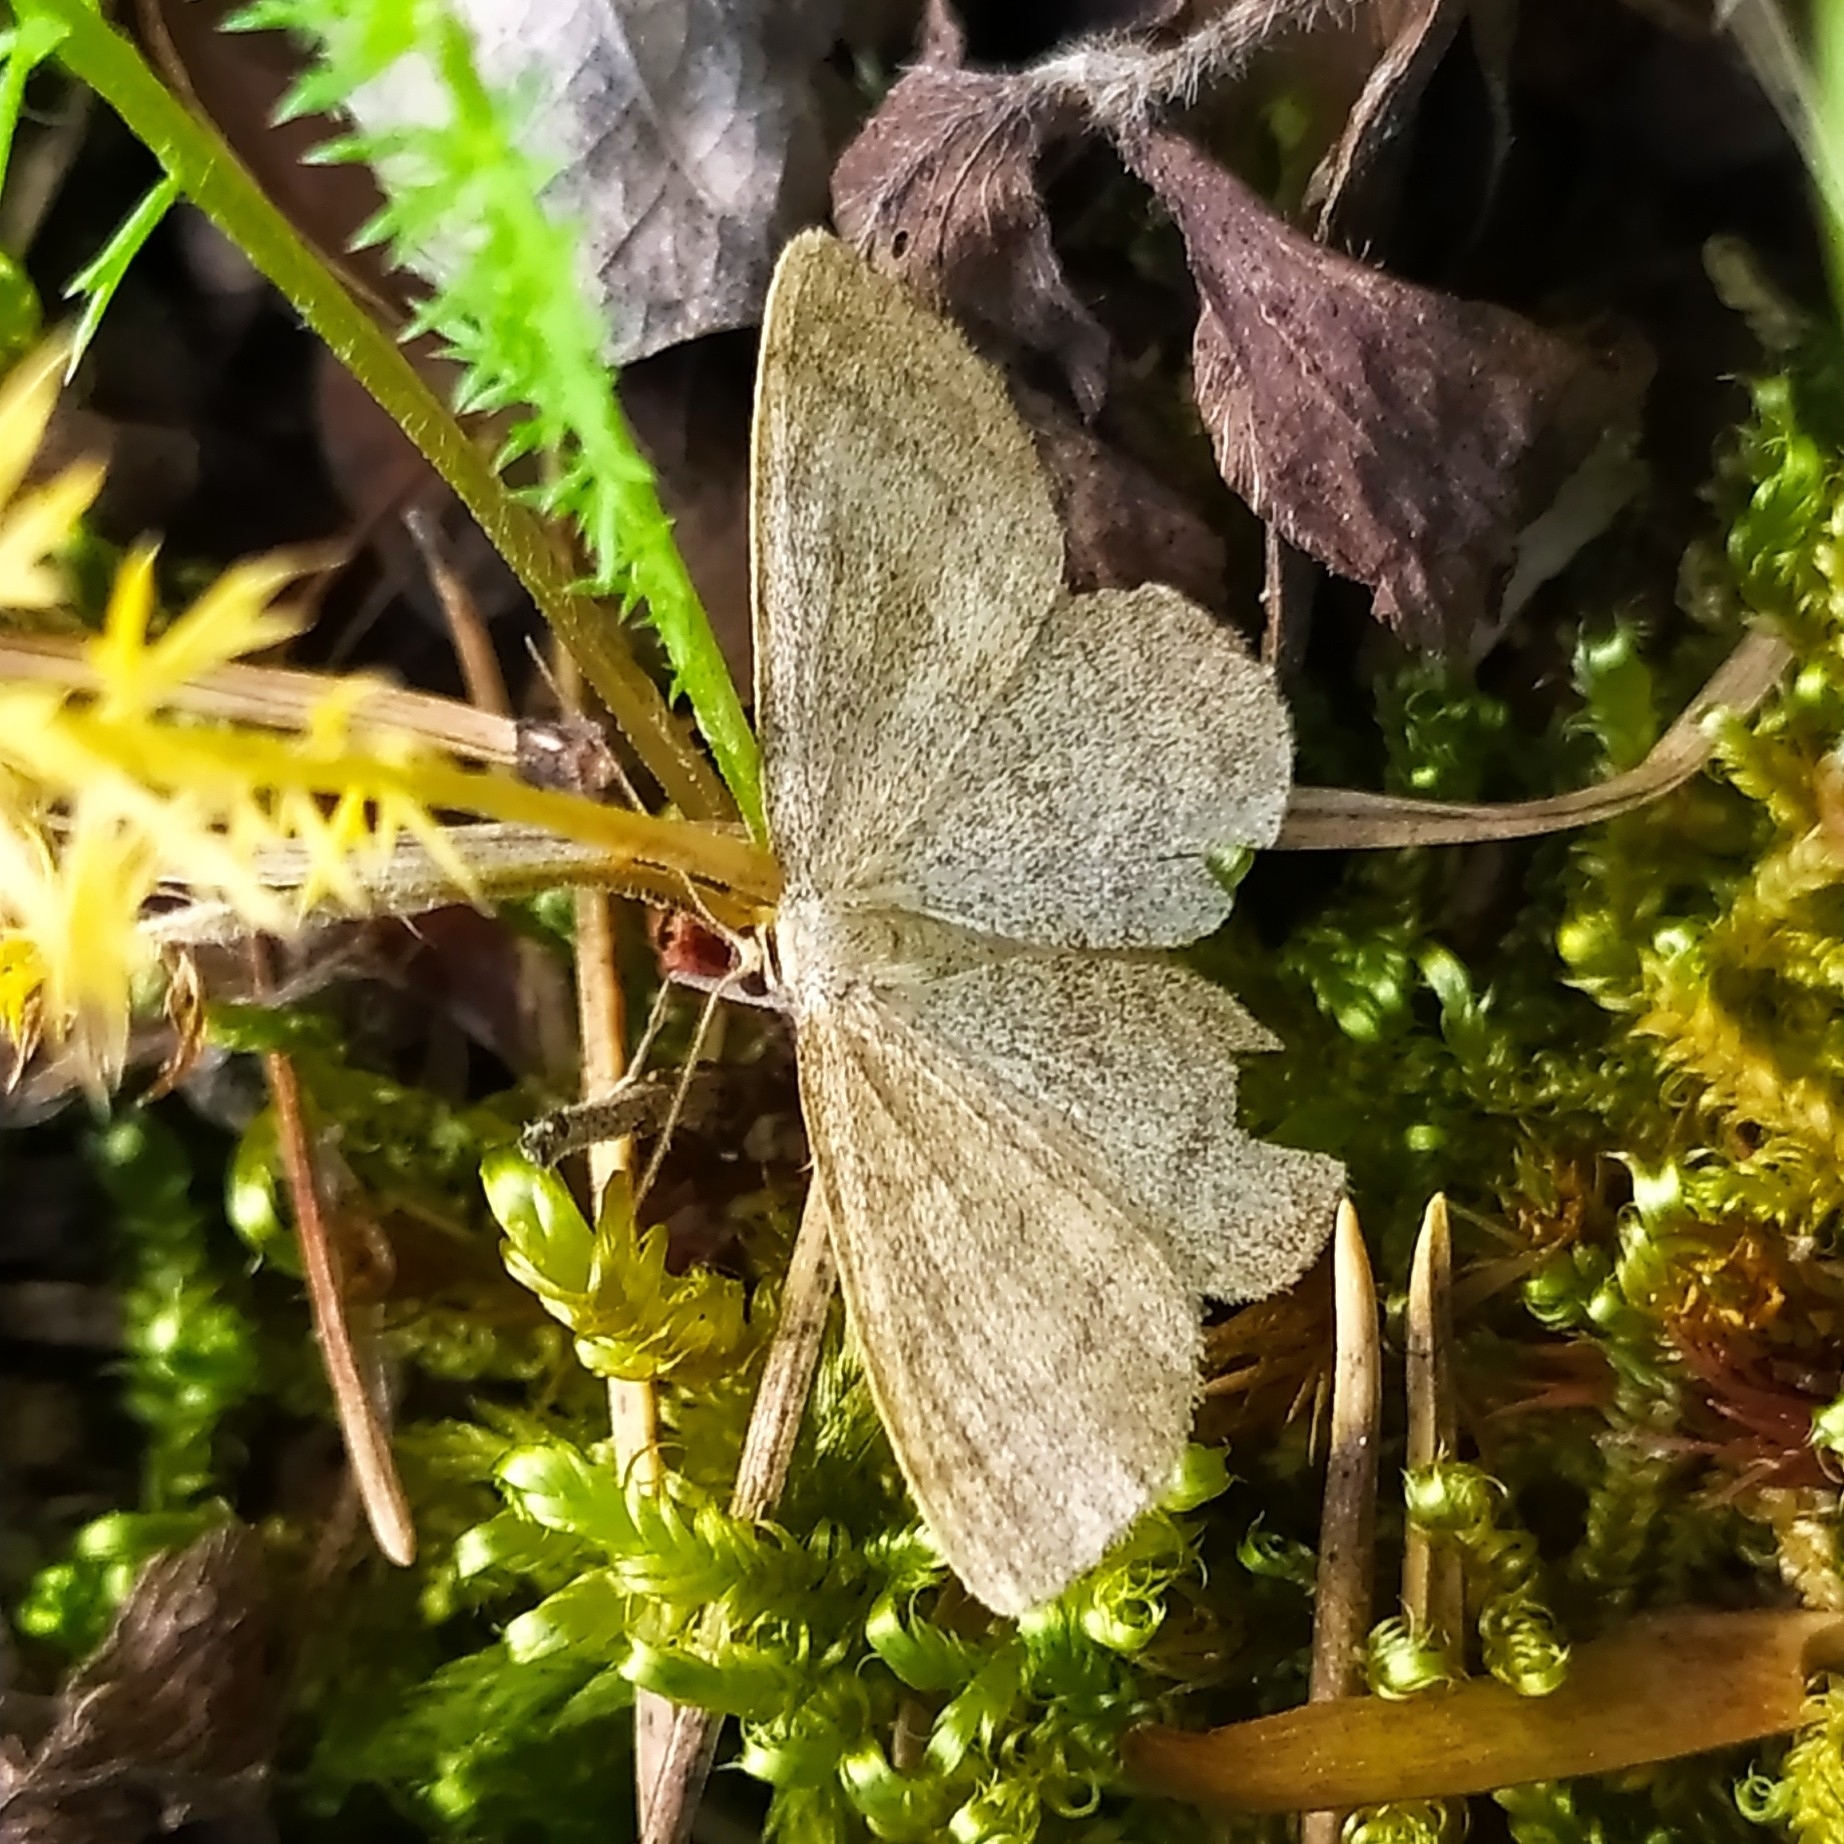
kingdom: Animalia
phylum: Arthropoda
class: Insecta
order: Lepidoptera
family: Geometridae
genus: Scopula
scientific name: Scopula ternata
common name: Smoky wave
